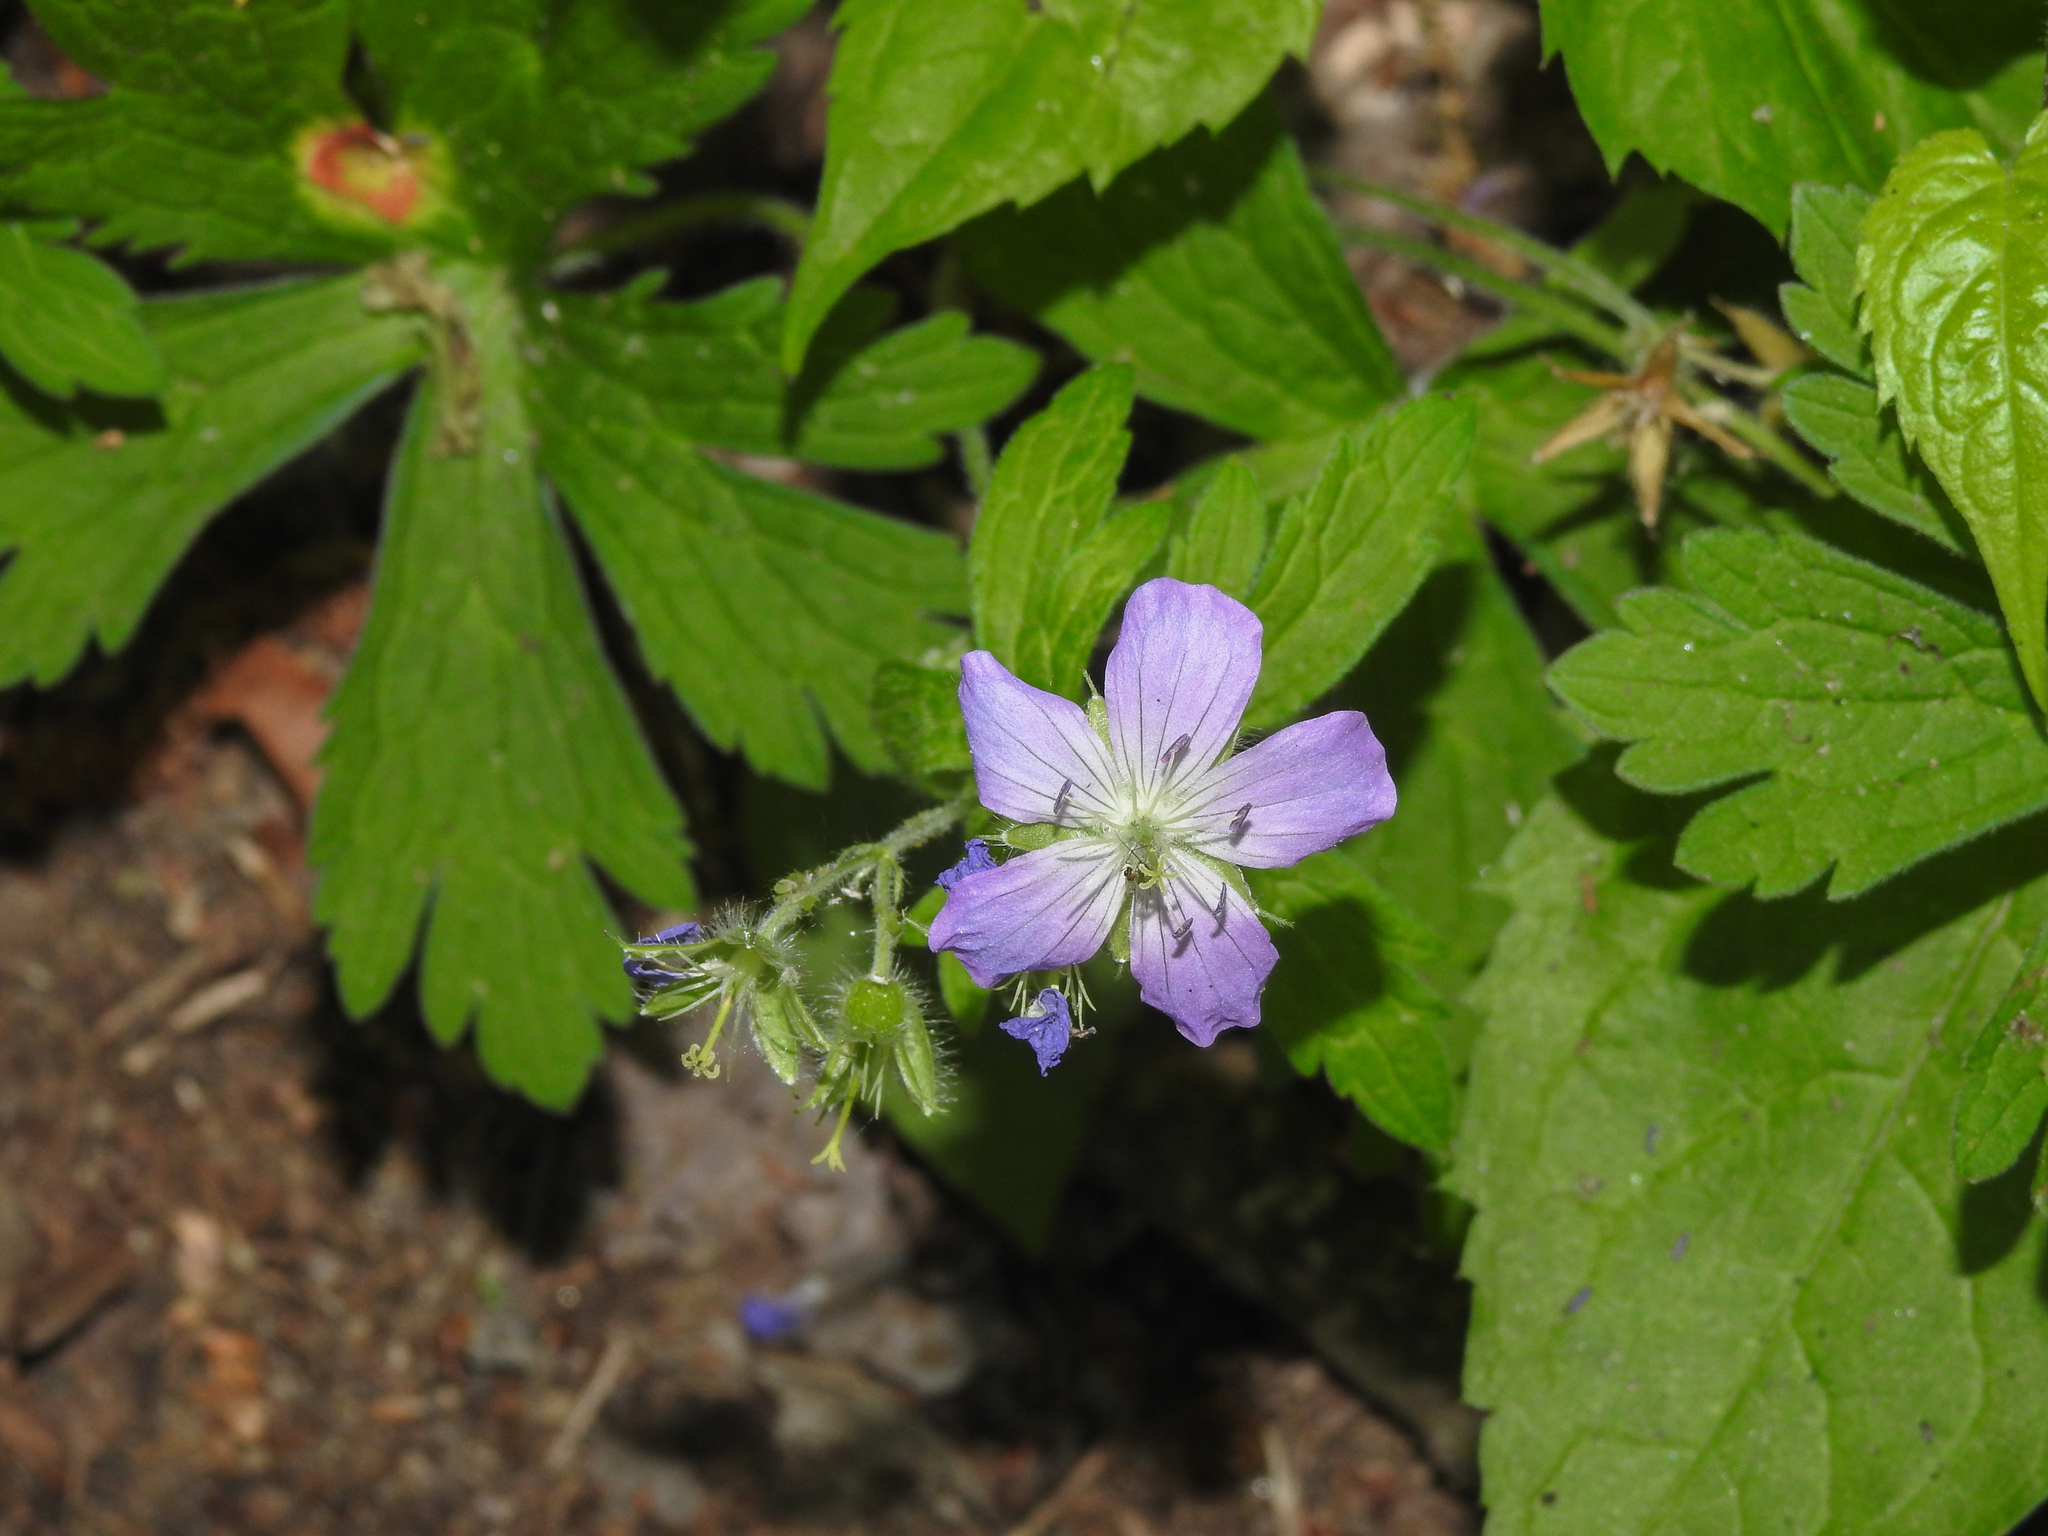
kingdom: Plantae
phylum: Tracheophyta
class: Magnoliopsida
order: Geraniales
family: Geraniaceae
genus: Geranium
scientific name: Geranium maculatum
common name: Spotted geranium
